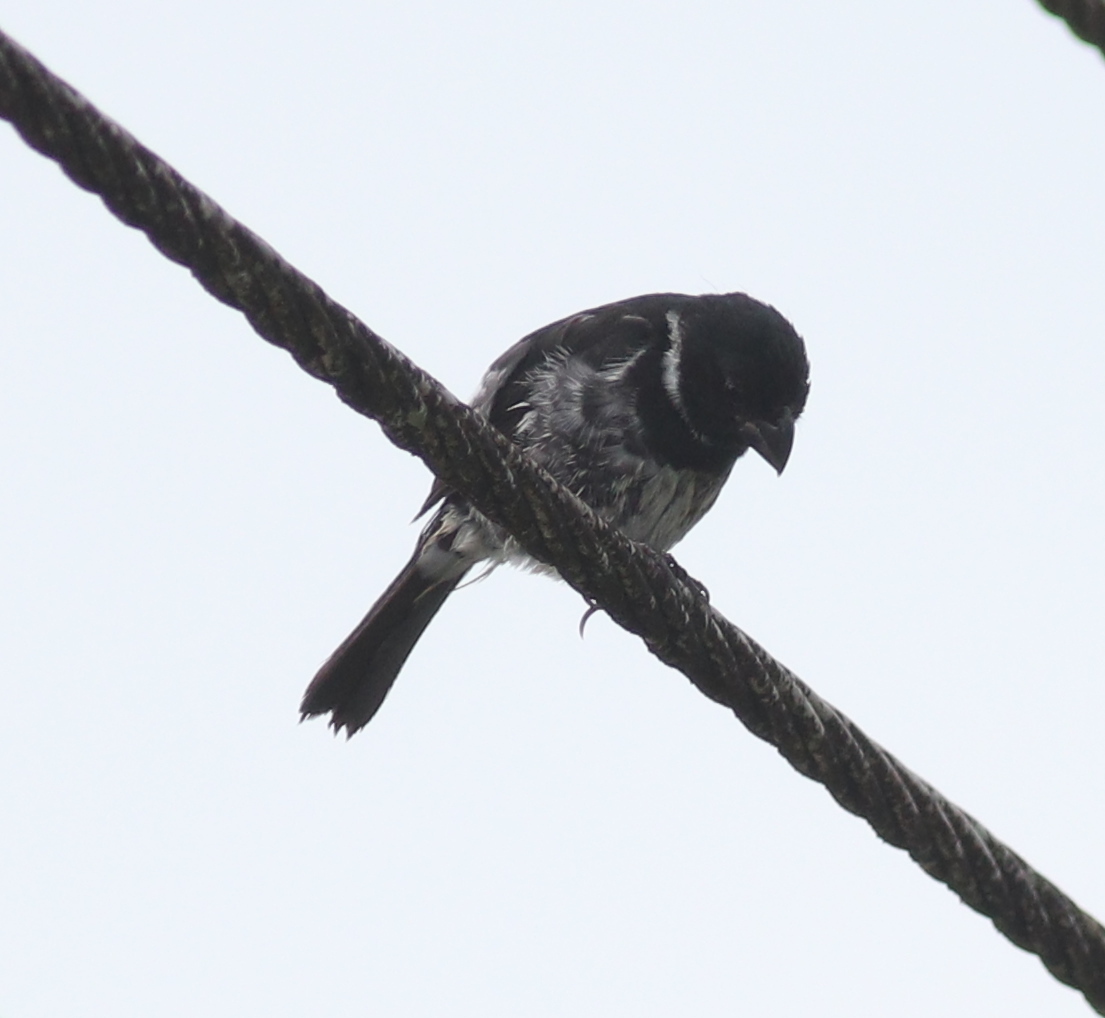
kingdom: Animalia
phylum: Chordata
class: Aves
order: Passeriformes
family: Thraupidae
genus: Sporophila
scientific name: Sporophila corvina
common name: Variable seedeater
